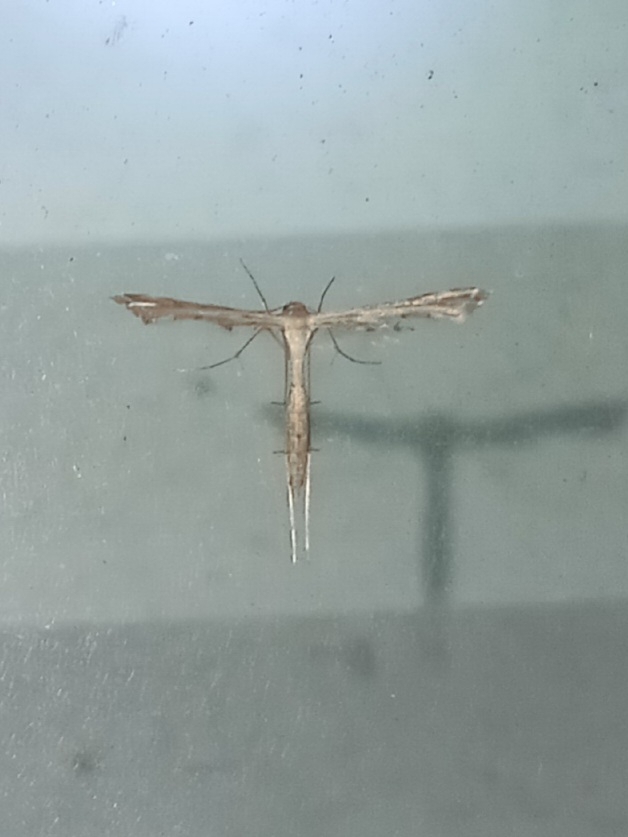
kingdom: Animalia
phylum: Arthropoda
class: Insecta
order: Lepidoptera
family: Pterophoridae
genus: Stenoptilodes
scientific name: Stenoptilodes
